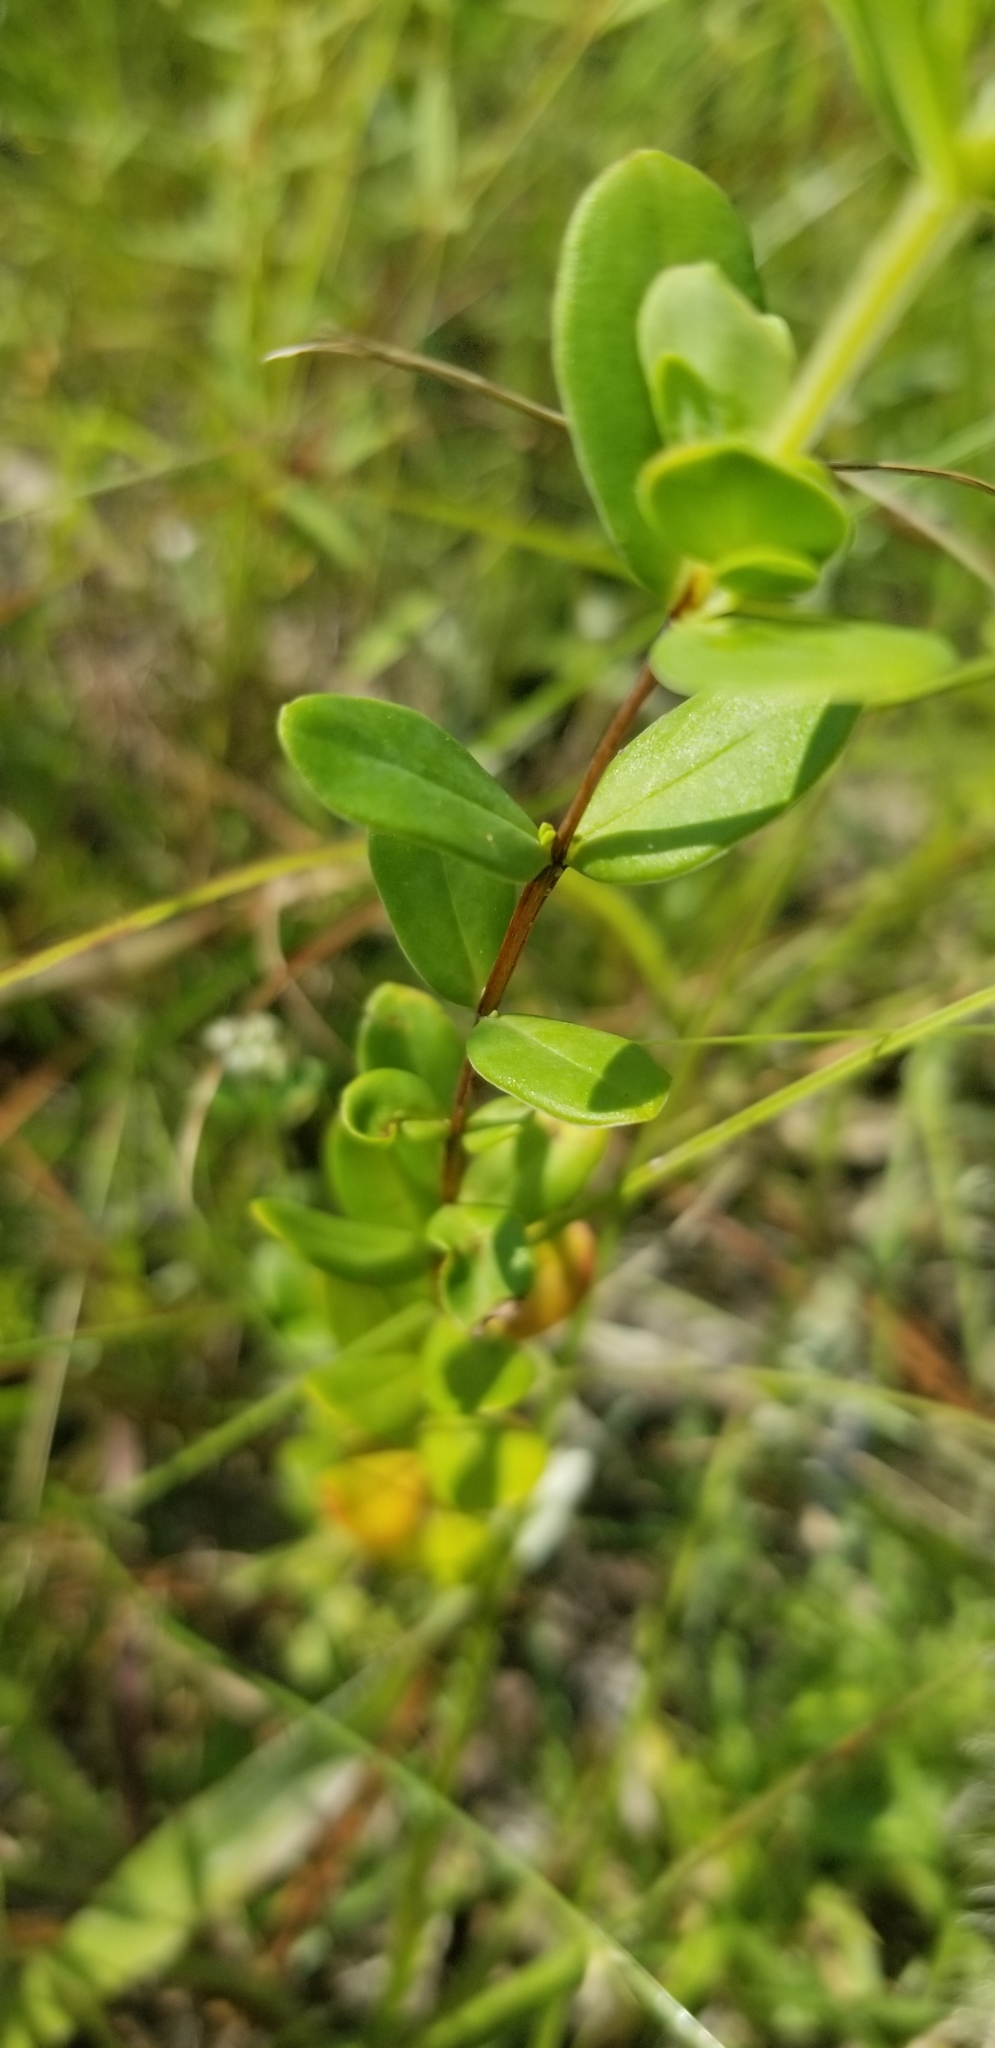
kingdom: Plantae
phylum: Tracheophyta
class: Magnoliopsida
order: Malpighiales
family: Hypericaceae
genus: Hypericum
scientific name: Hypericum crux-andreae
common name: St.-peter's-wort
